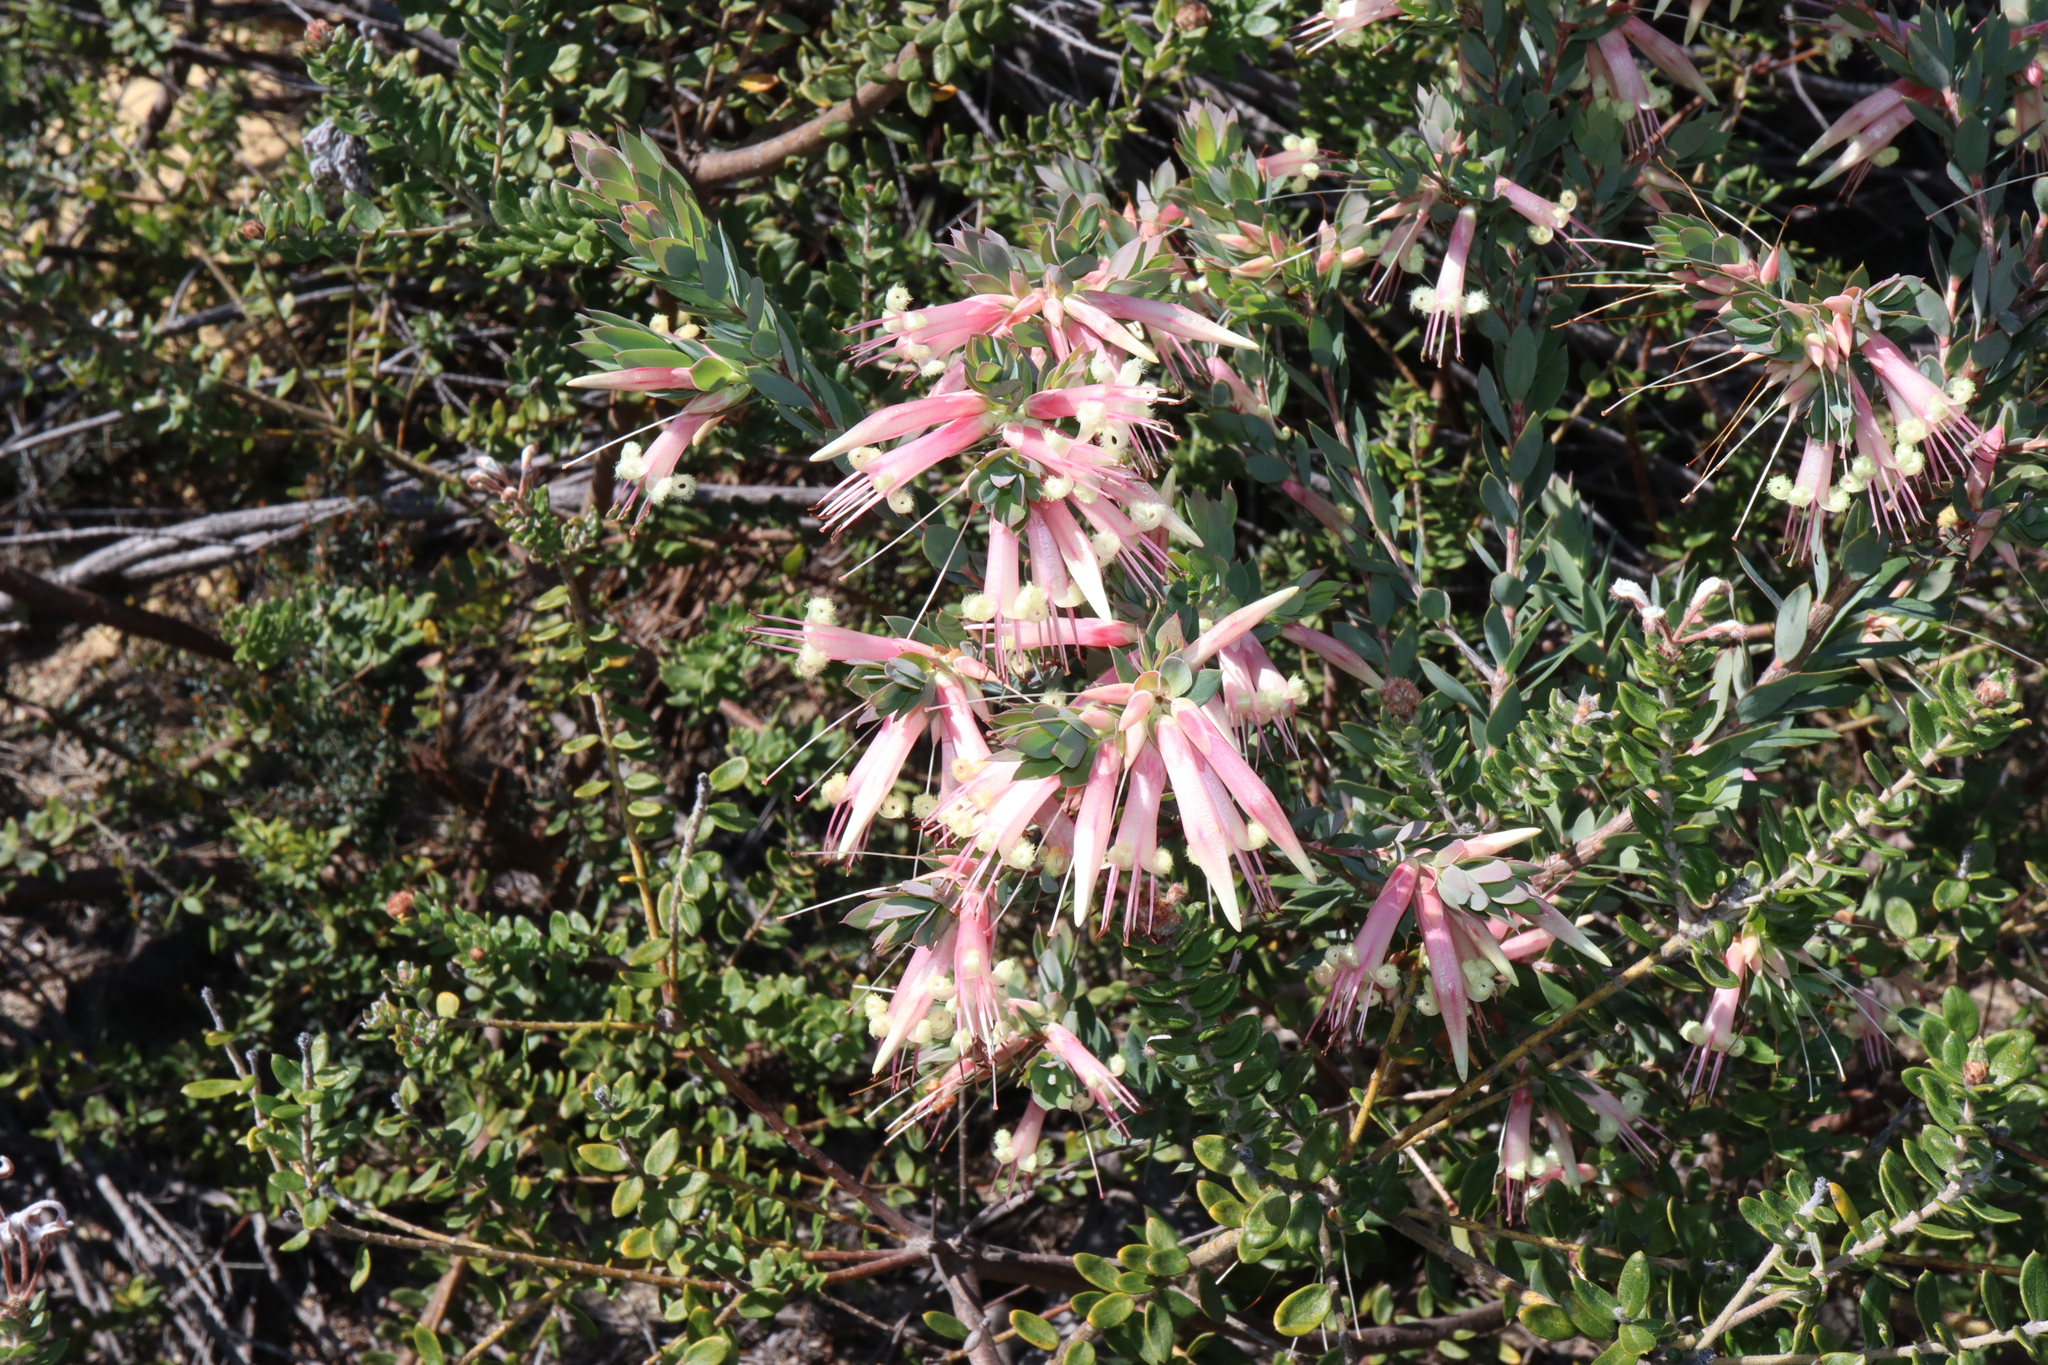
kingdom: Plantae
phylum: Tracheophyta
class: Magnoliopsida
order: Ericales
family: Ericaceae
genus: Styphelia
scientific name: Styphelia triflora
